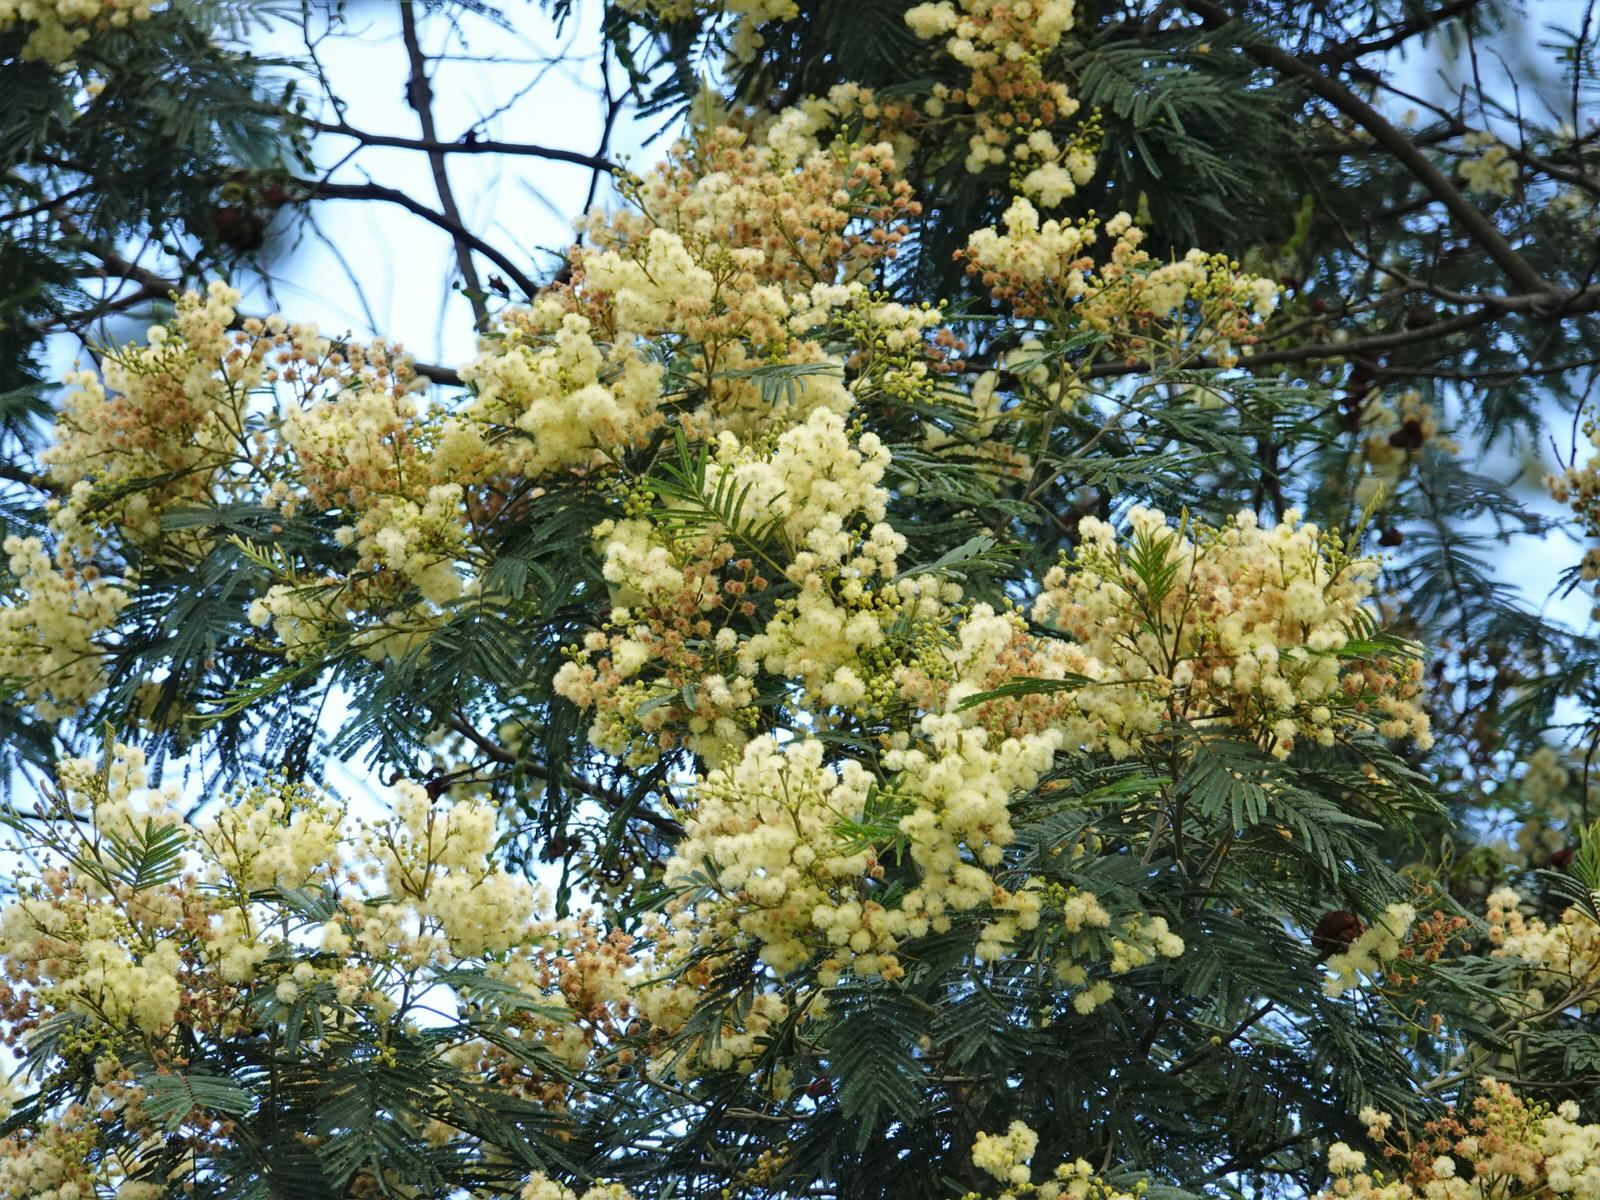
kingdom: Plantae
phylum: Tracheophyta
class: Magnoliopsida
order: Fabales
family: Fabaceae
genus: Acacia
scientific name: Acacia mearnsii
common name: Black wattle
